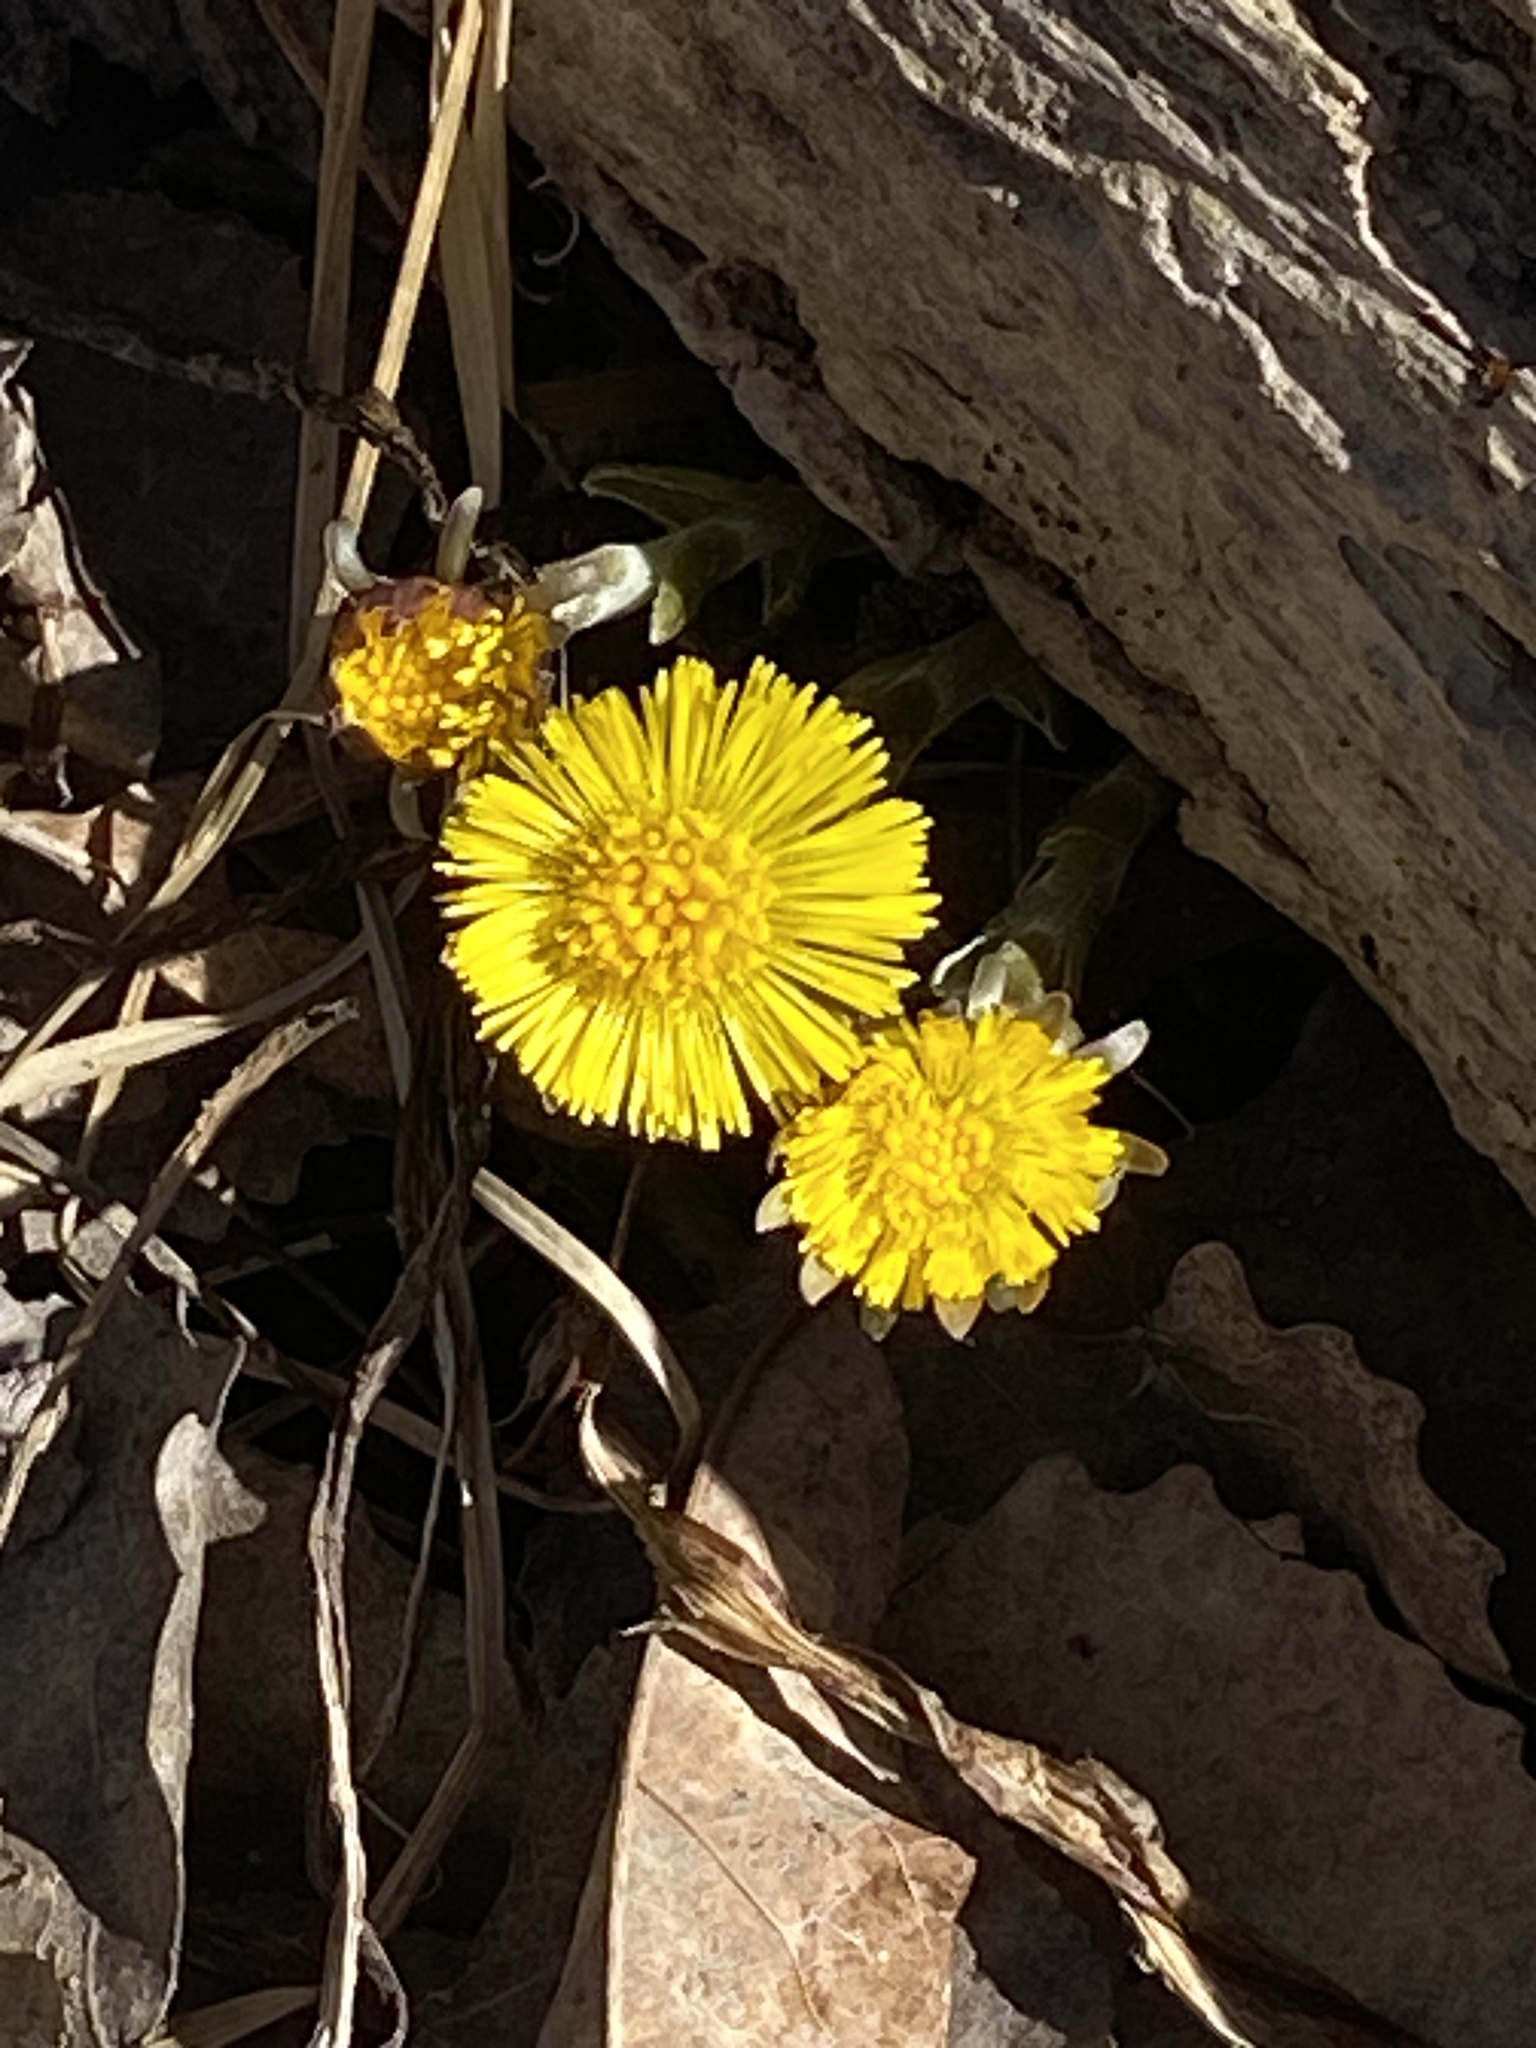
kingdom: Plantae
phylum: Tracheophyta
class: Magnoliopsida
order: Asterales
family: Asteraceae
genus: Tussilago
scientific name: Tussilago farfara
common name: Coltsfoot
